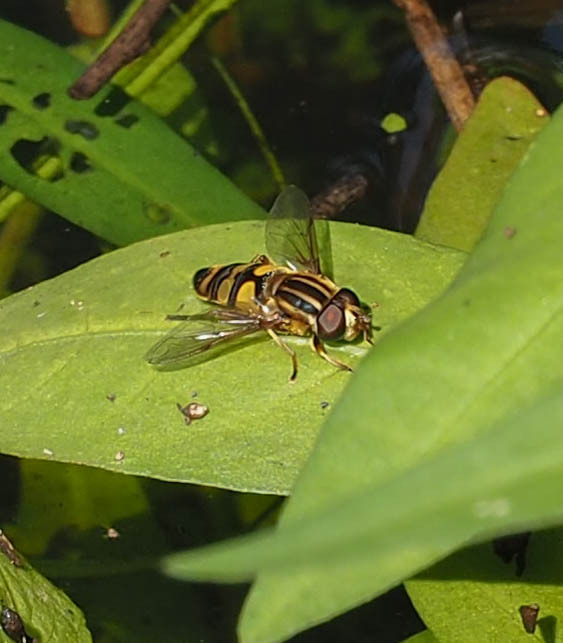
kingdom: Animalia
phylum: Arthropoda
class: Insecta
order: Diptera
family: Syrphidae
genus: Helophilus
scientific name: Helophilus fasciatus
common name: Narrow-headed marsh fly
